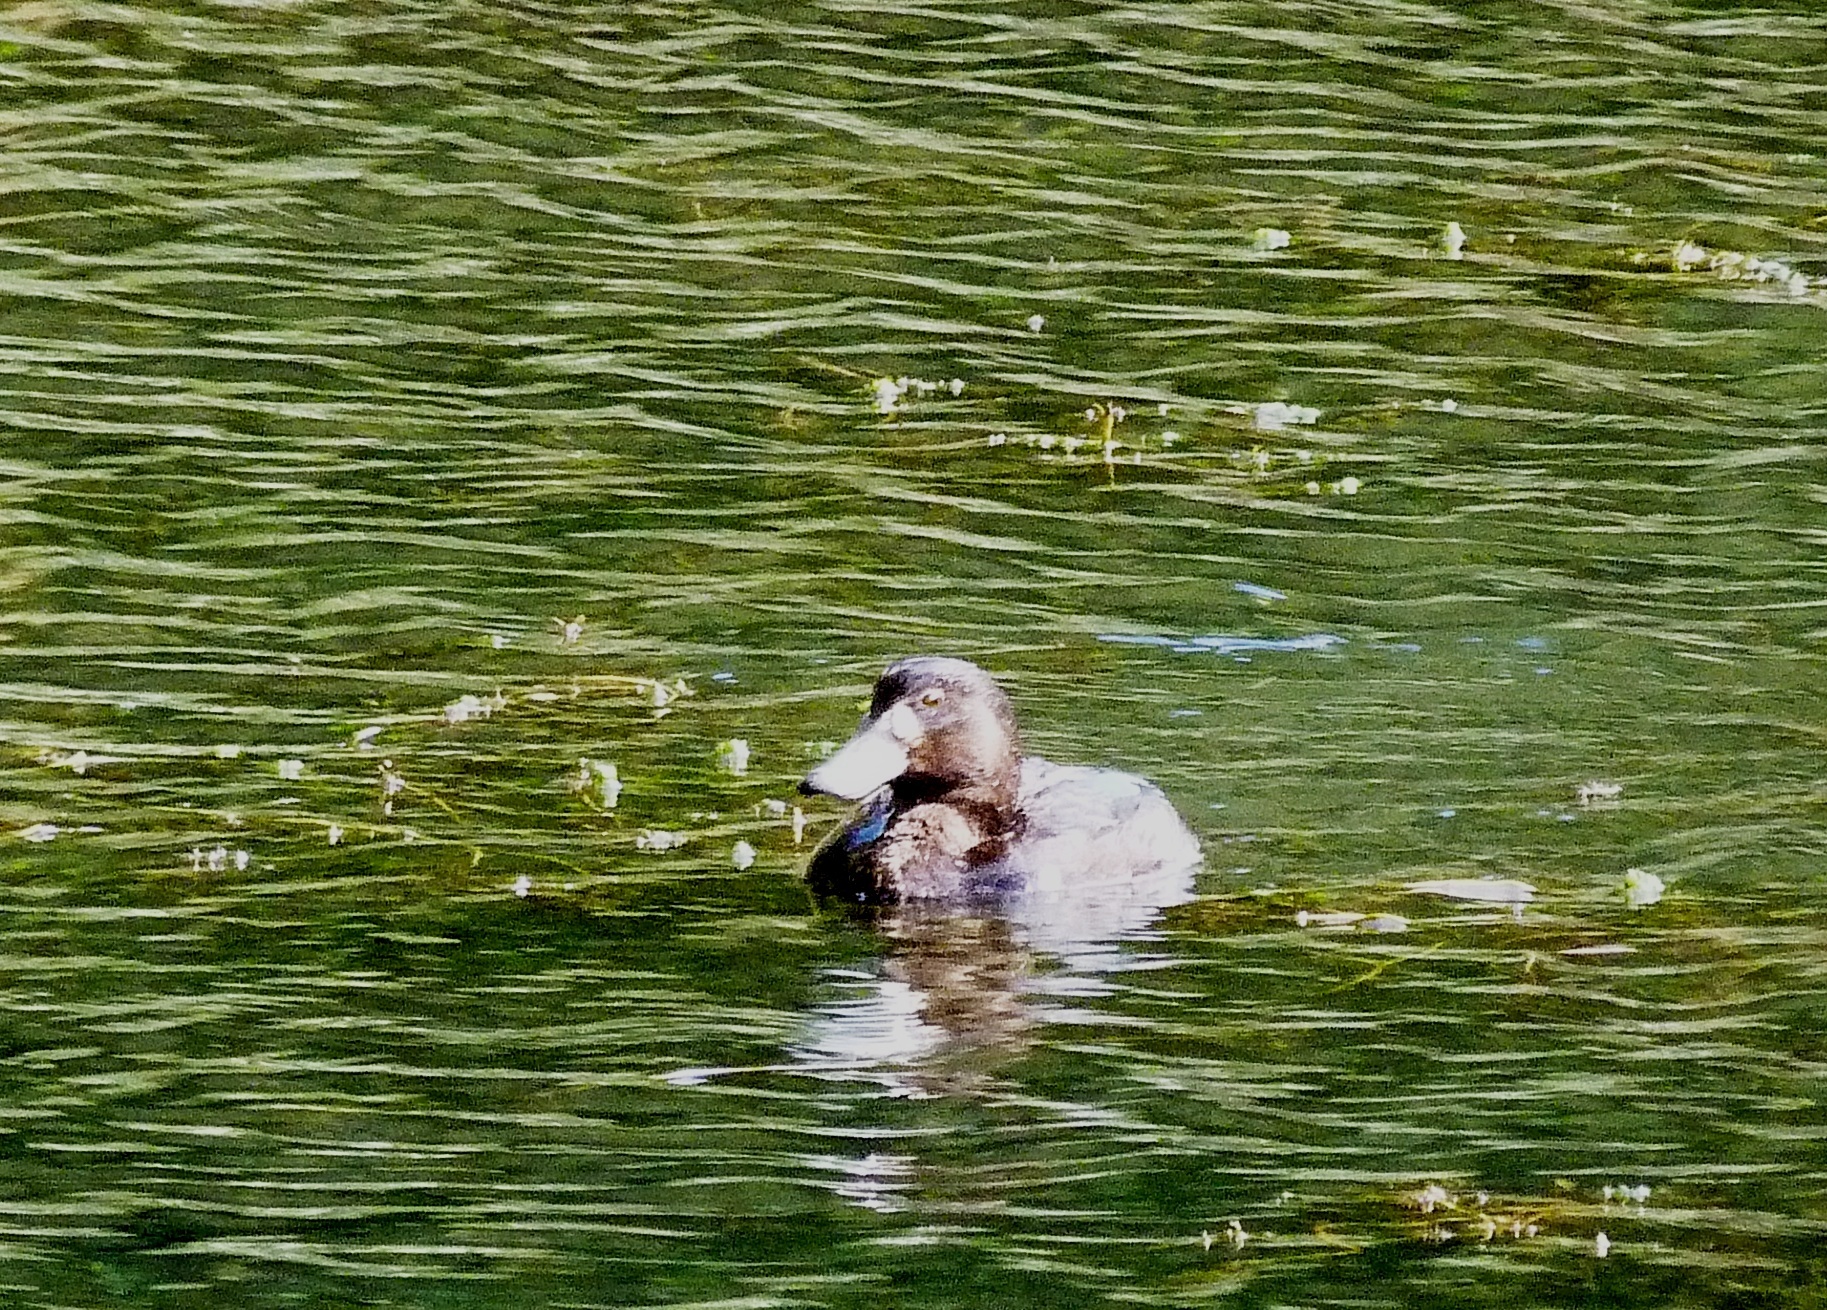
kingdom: Animalia
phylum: Chordata
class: Aves
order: Anseriformes
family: Anatidae
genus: Aythya
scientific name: Aythya novaeseelandiae
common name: New zealand scaup
